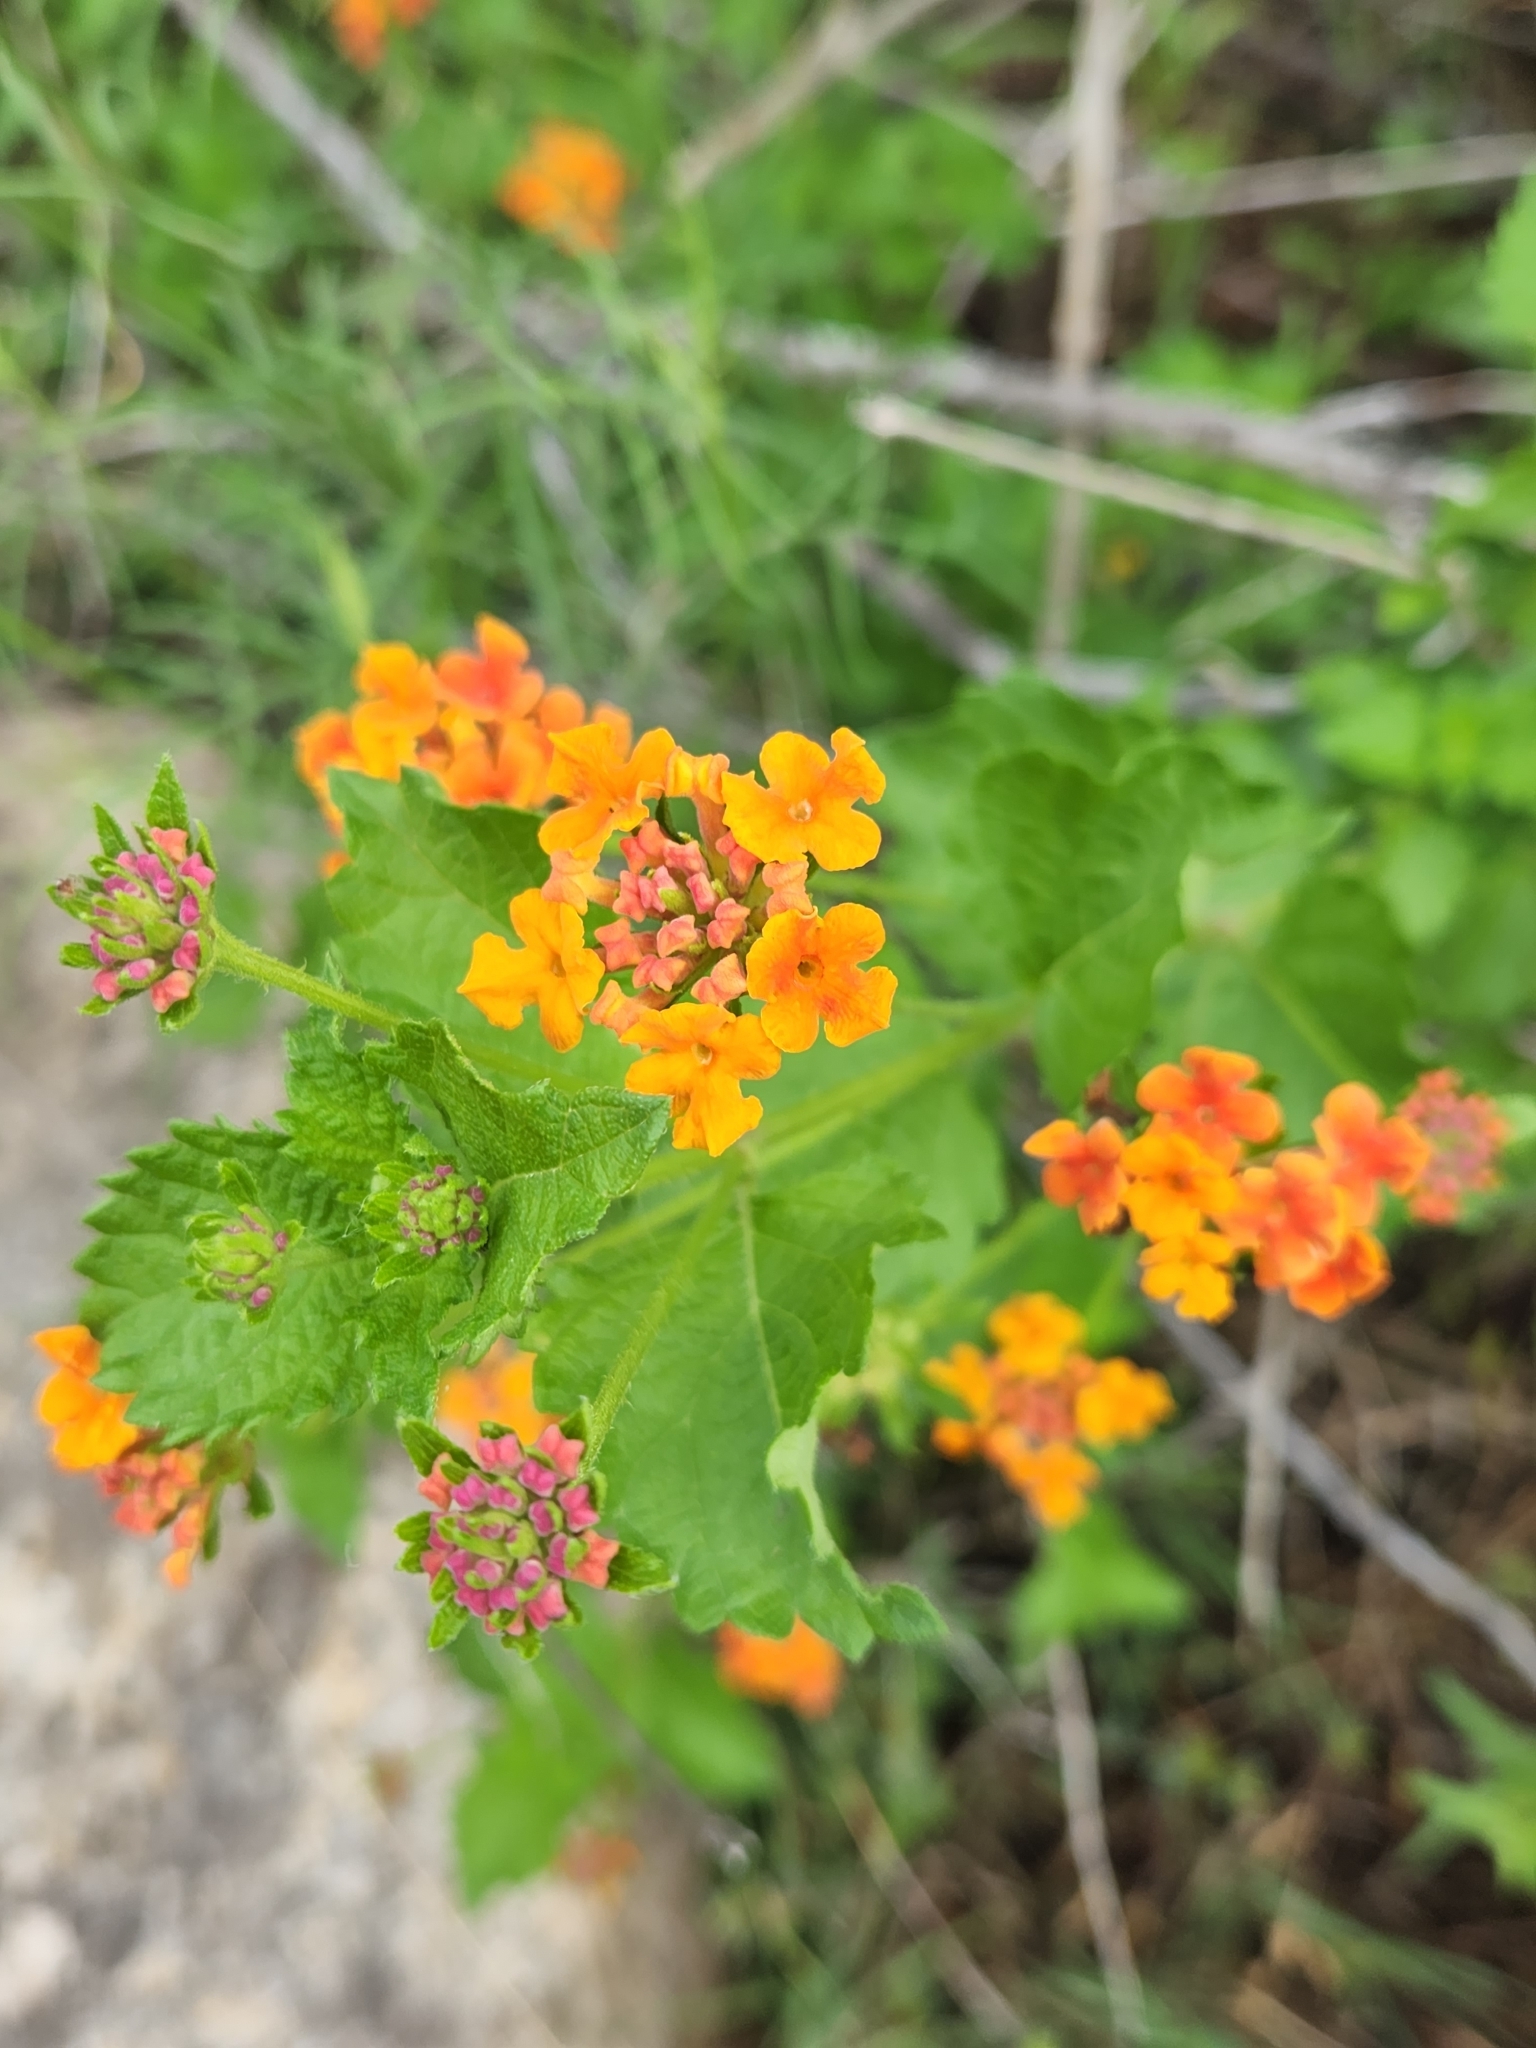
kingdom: Plantae
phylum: Tracheophyta
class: Magnoliopsida
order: Lamiales
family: Verbenaceae
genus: Lantana
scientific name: Lantana urticoides
